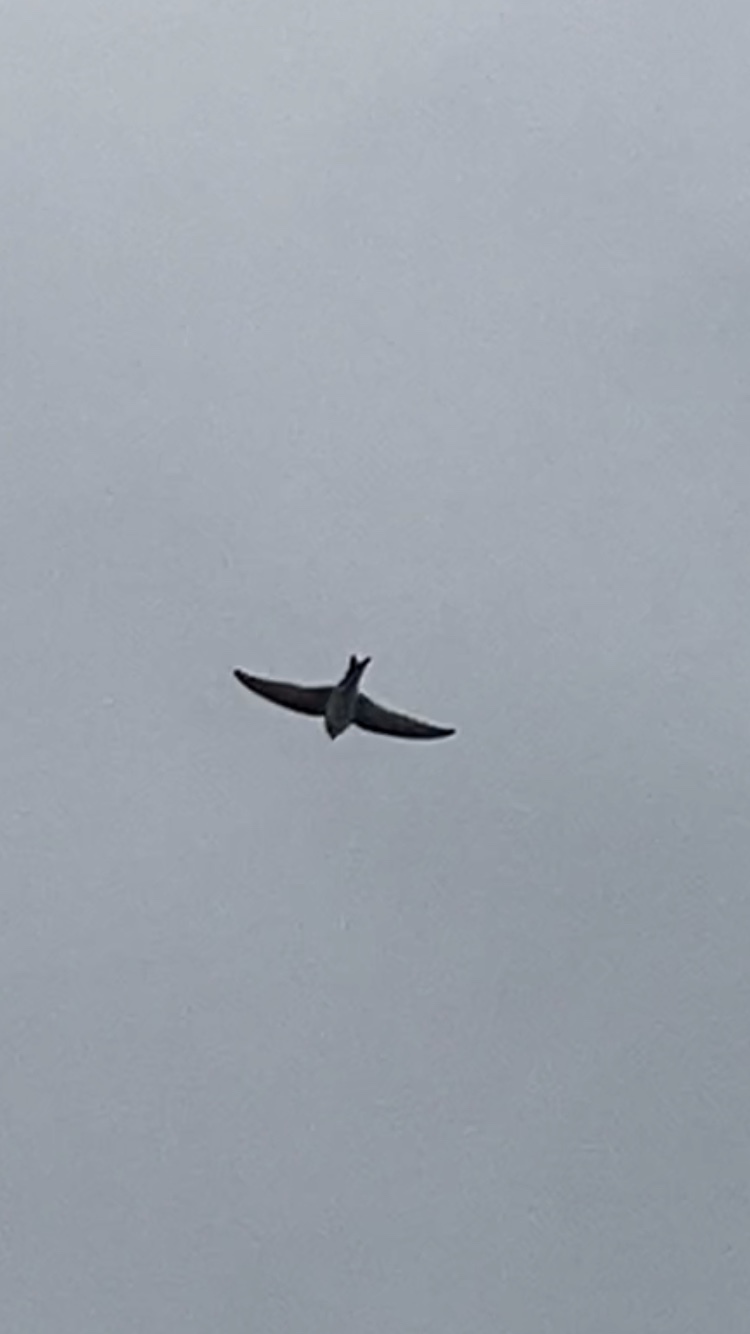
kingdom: Animalia
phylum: Chordata
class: Aves
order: Passeriformes
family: Hirundinidae
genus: Delichon
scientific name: Delichon urbicum
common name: Common house martin
